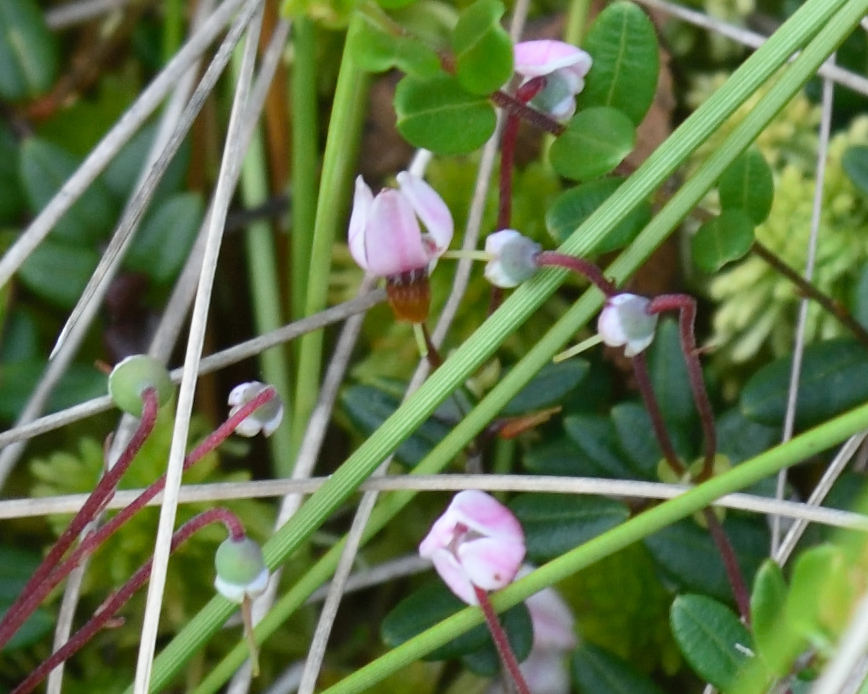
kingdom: Plantae
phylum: Tracheophyta
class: Magnoliopsida
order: Ericales
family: Ericaceae
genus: Vaccinium
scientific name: Vaccinium oxycoccos
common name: Cranberry
